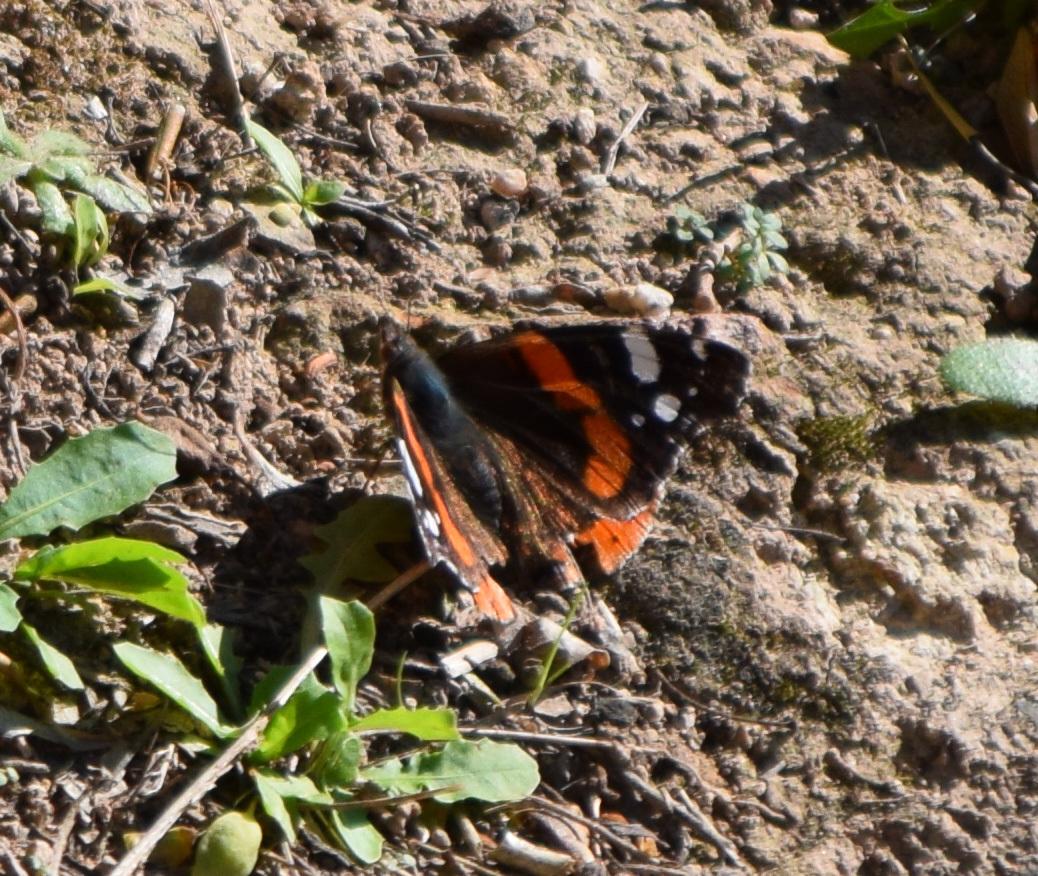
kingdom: Animalia
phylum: Arthropoda
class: Insecta
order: Lepidoptera
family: Nymphalidae
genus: Vanessa
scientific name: Vanessa atalanta
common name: Red admiral
